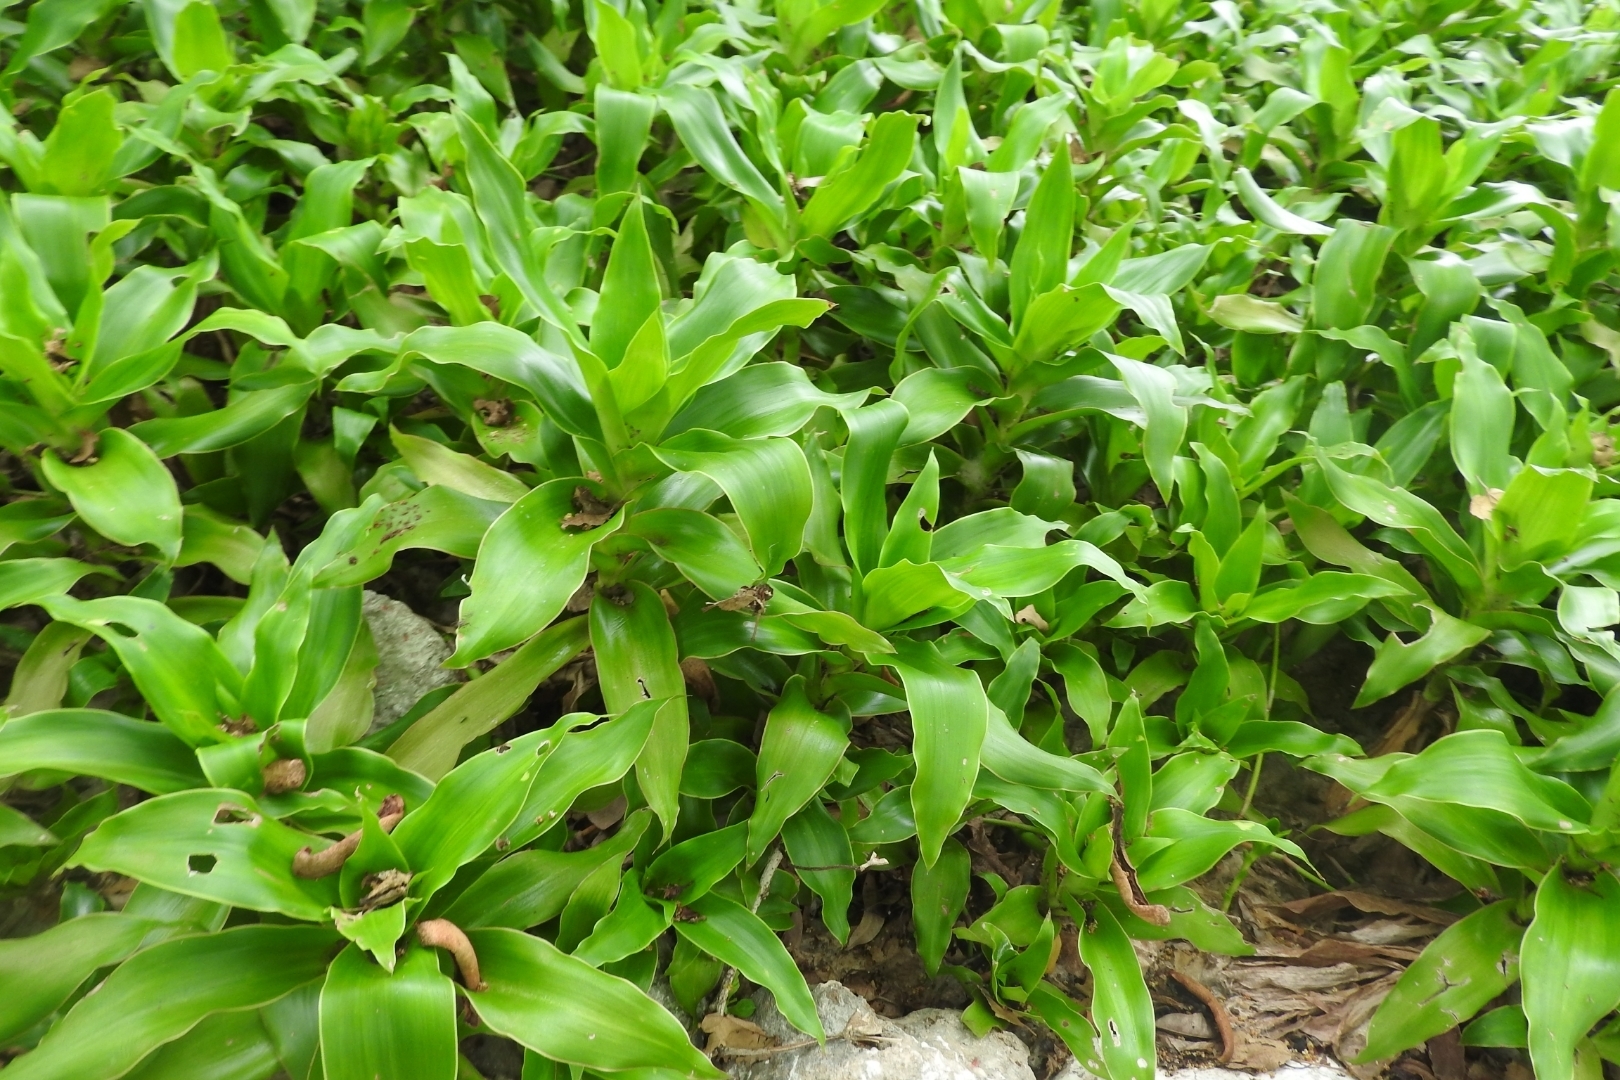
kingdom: Plantae
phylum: Tracheophyta
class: Liliopsida
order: Commelinales
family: Commelinaceae
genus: Callisia
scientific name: Callisia fragrans
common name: Basketplant
